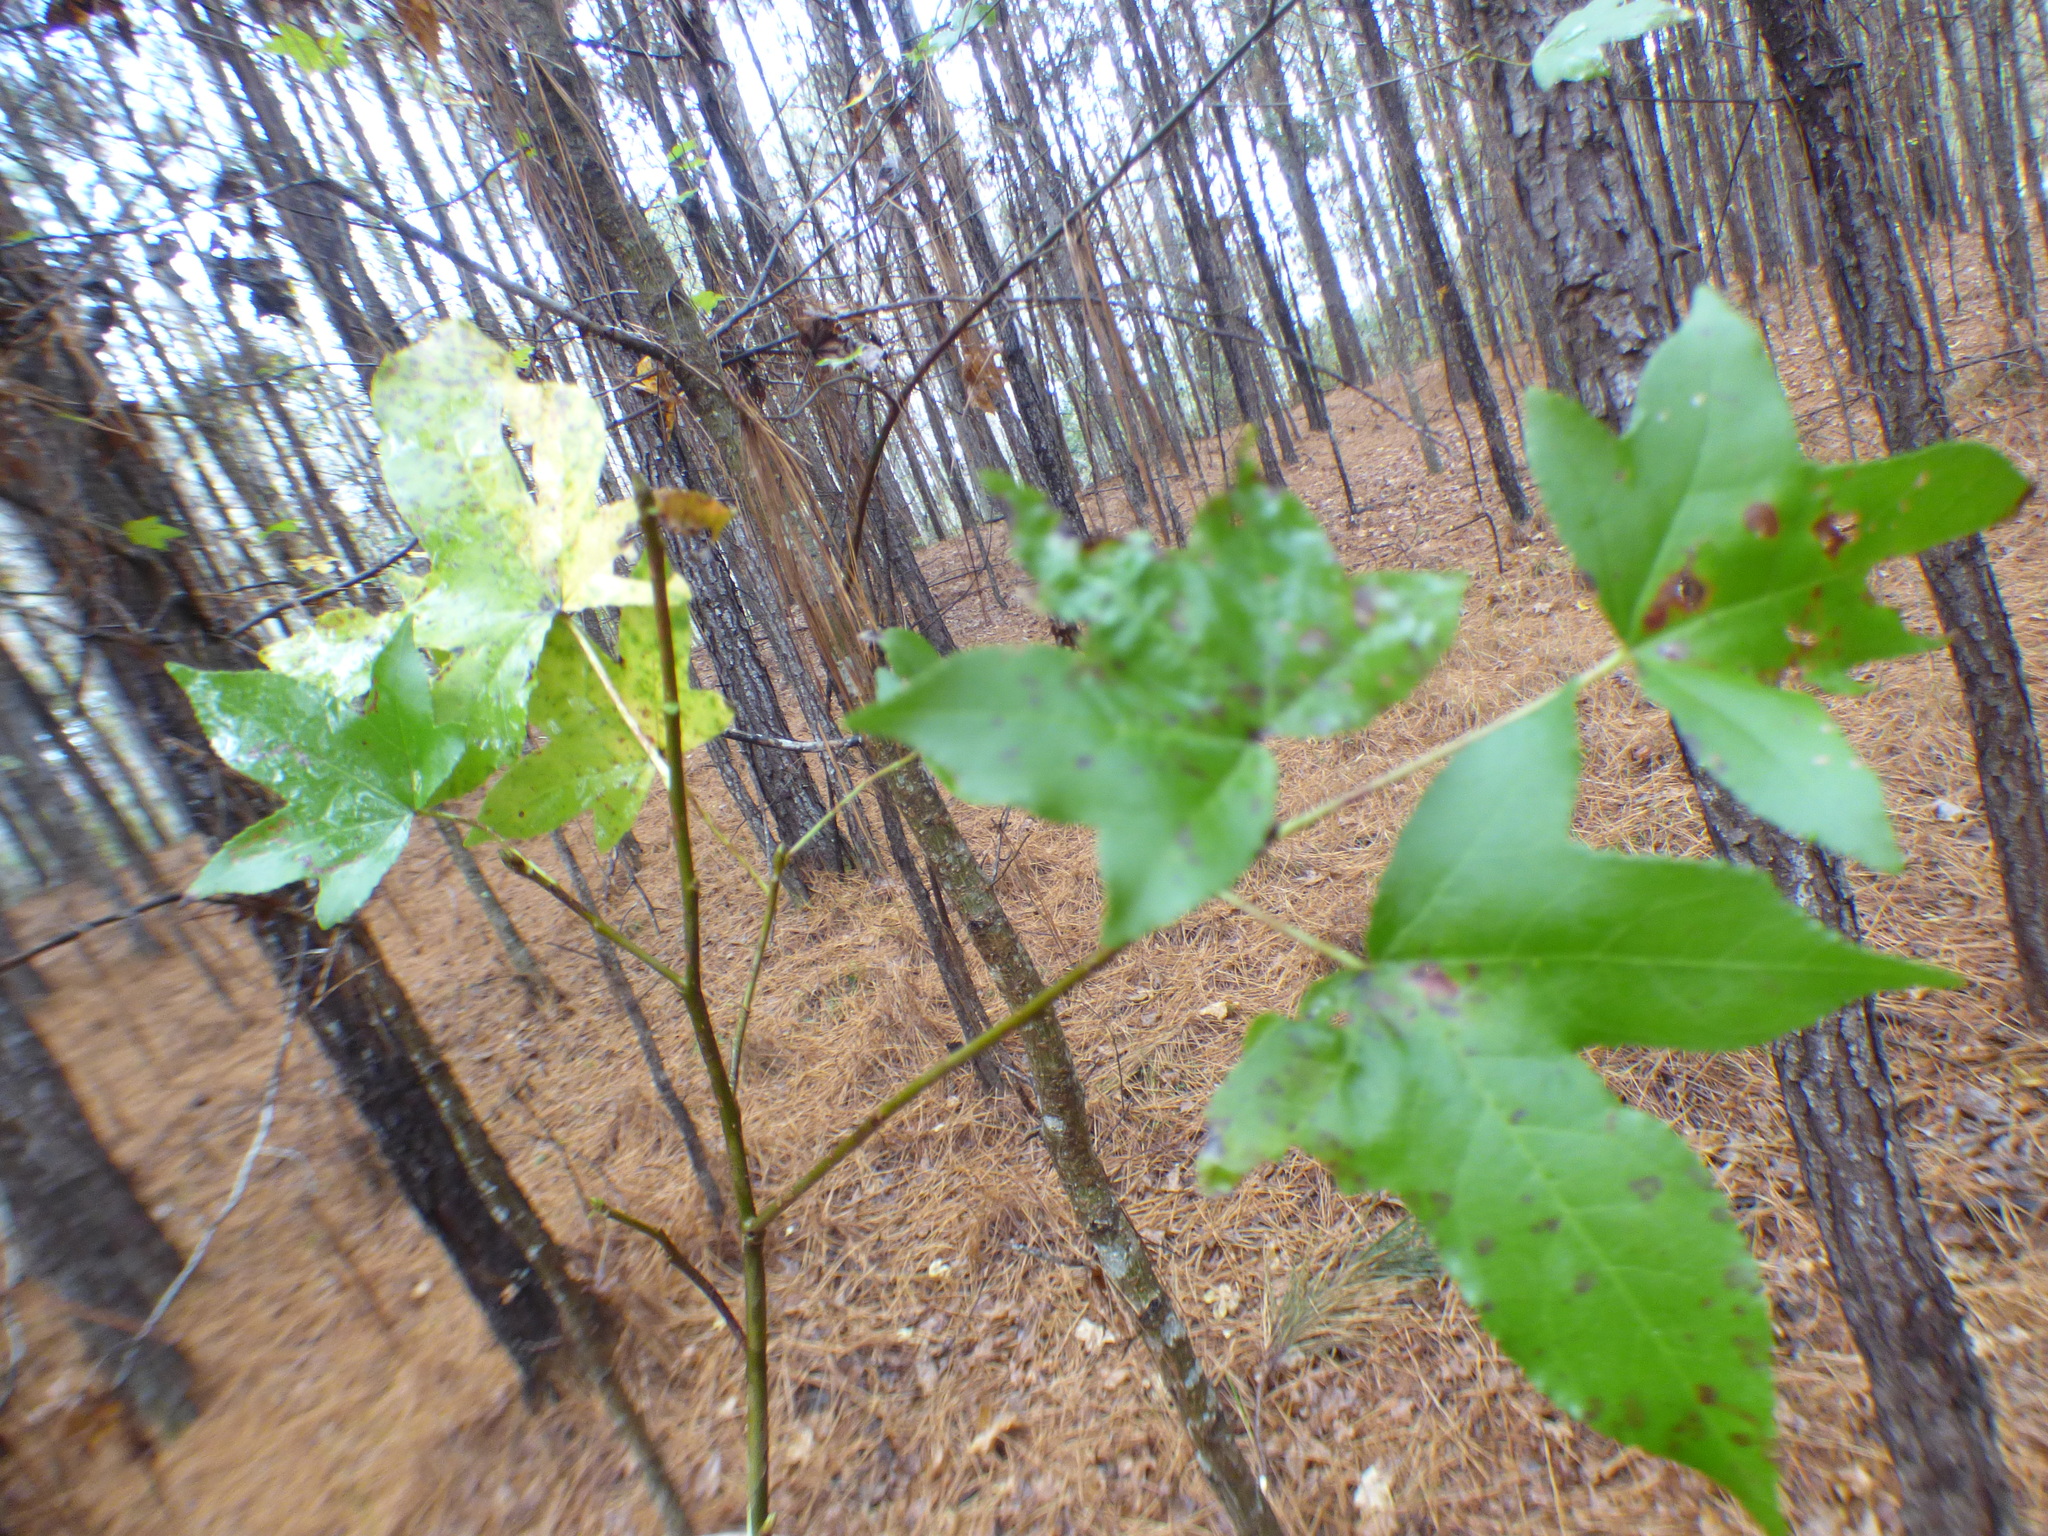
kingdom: Plantae
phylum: Tracheophyta
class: Magnoliopsida
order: Saxifragales
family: Altingiaceae
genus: Liquidambar
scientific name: Liquidambar styraciflua
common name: Sweet gum
